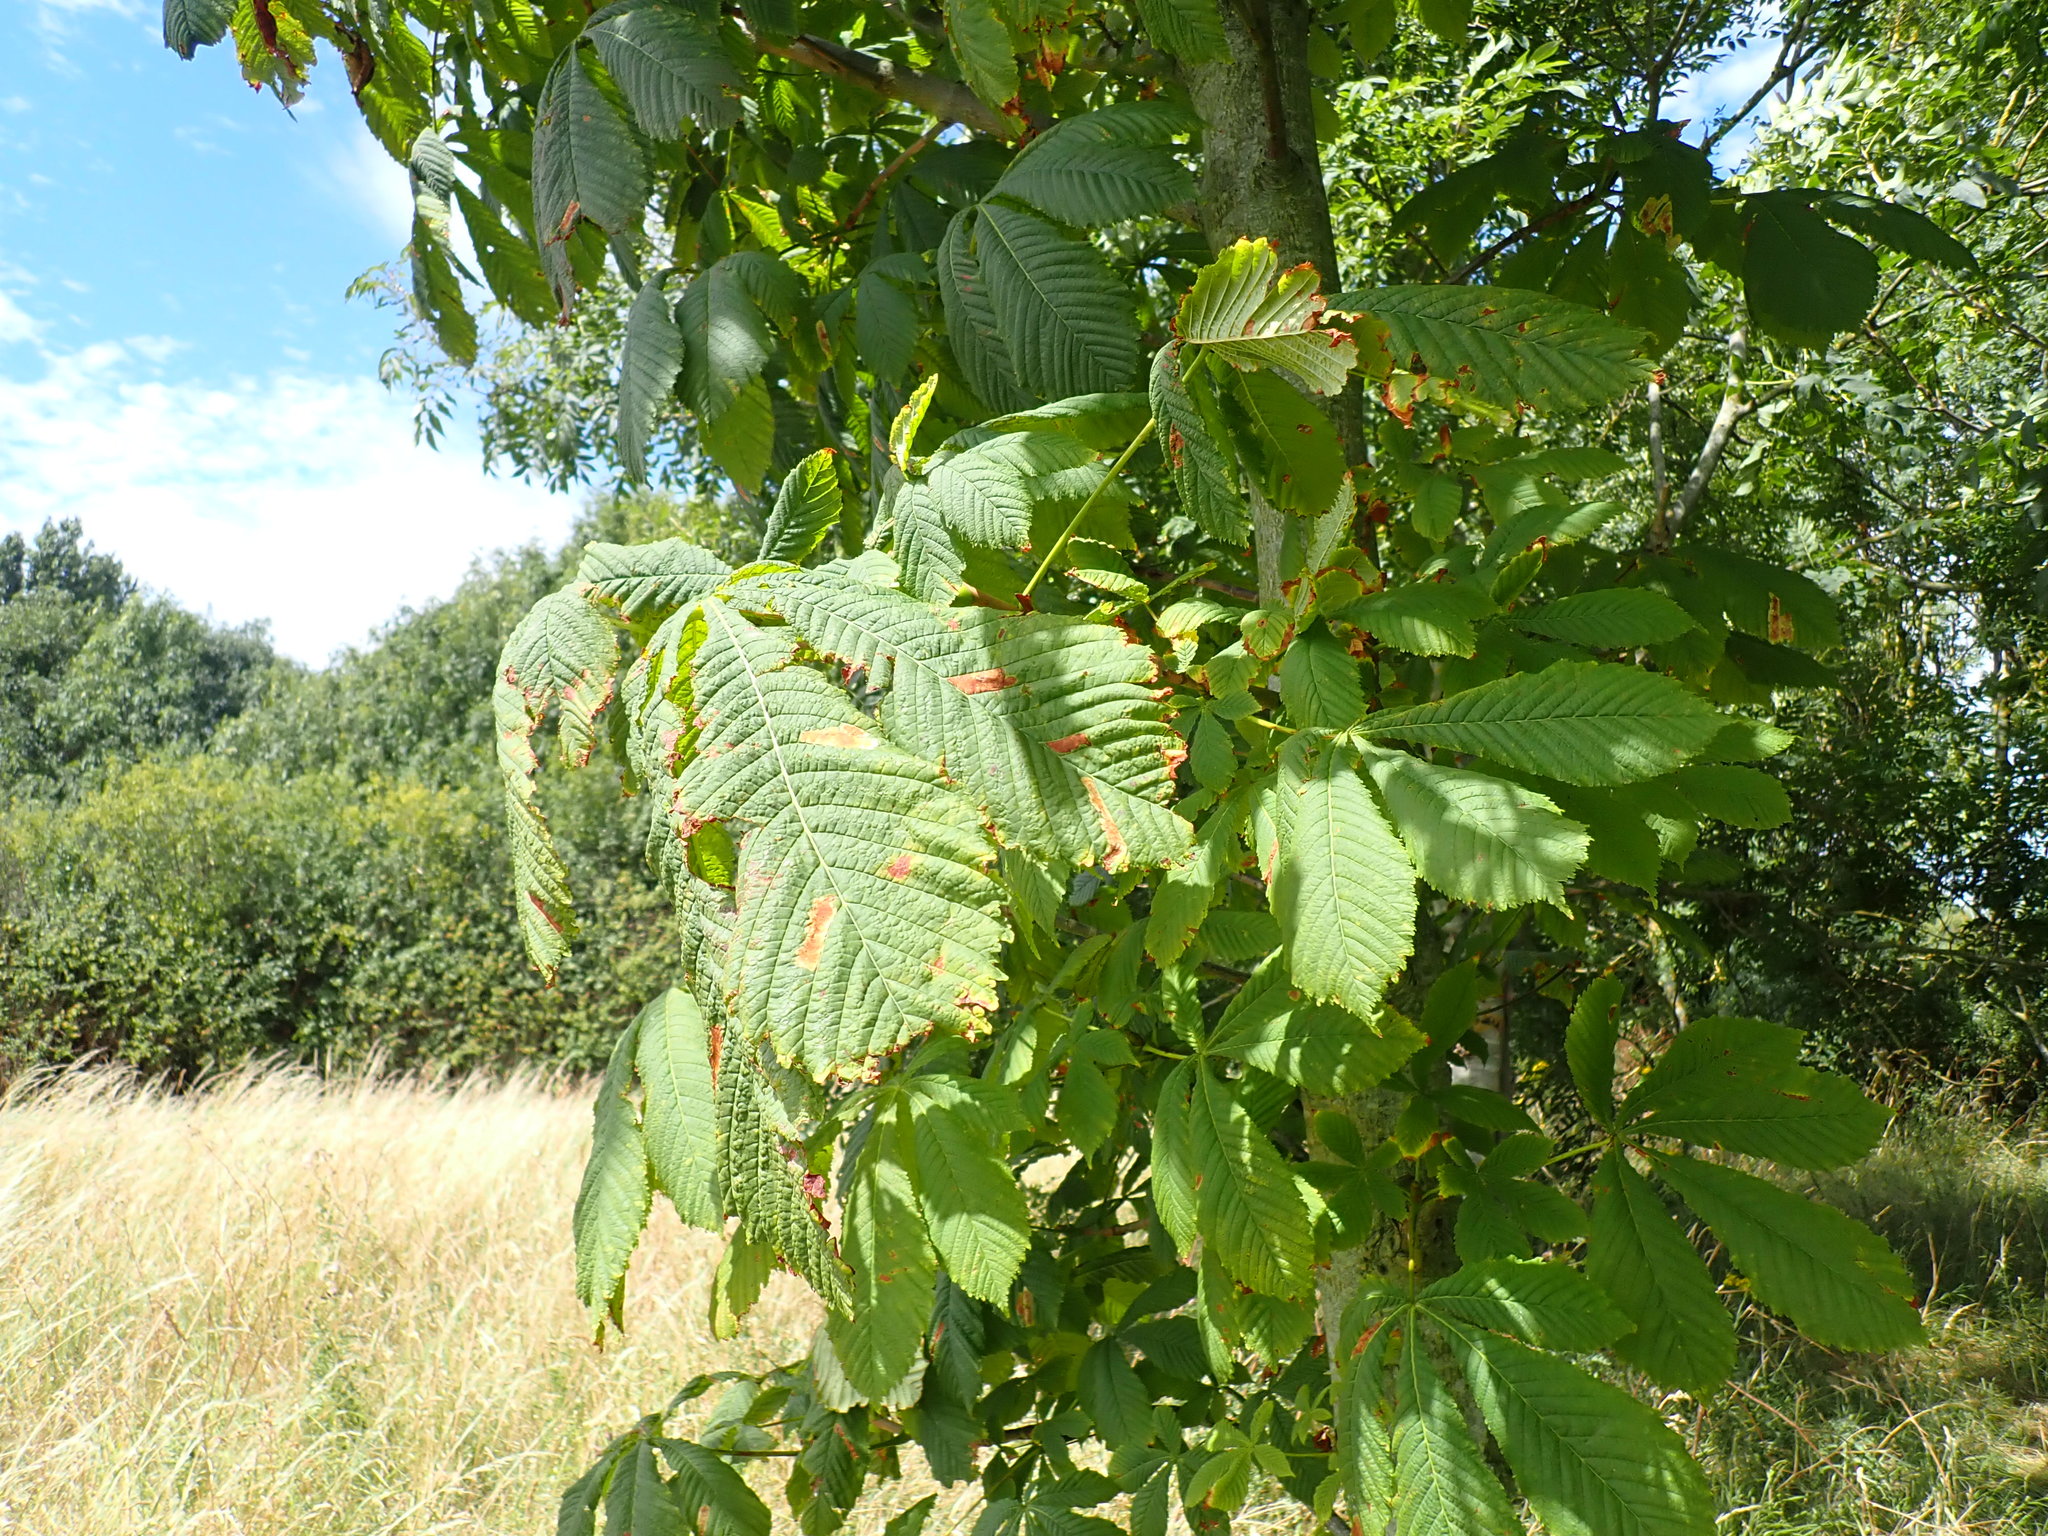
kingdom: Plantae
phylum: Tracheophyta
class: Magnoliopsida
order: Sapindales
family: Sapindaceae
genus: Aesculus
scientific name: Aesculus hippocastanum
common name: Horse-chestnut
